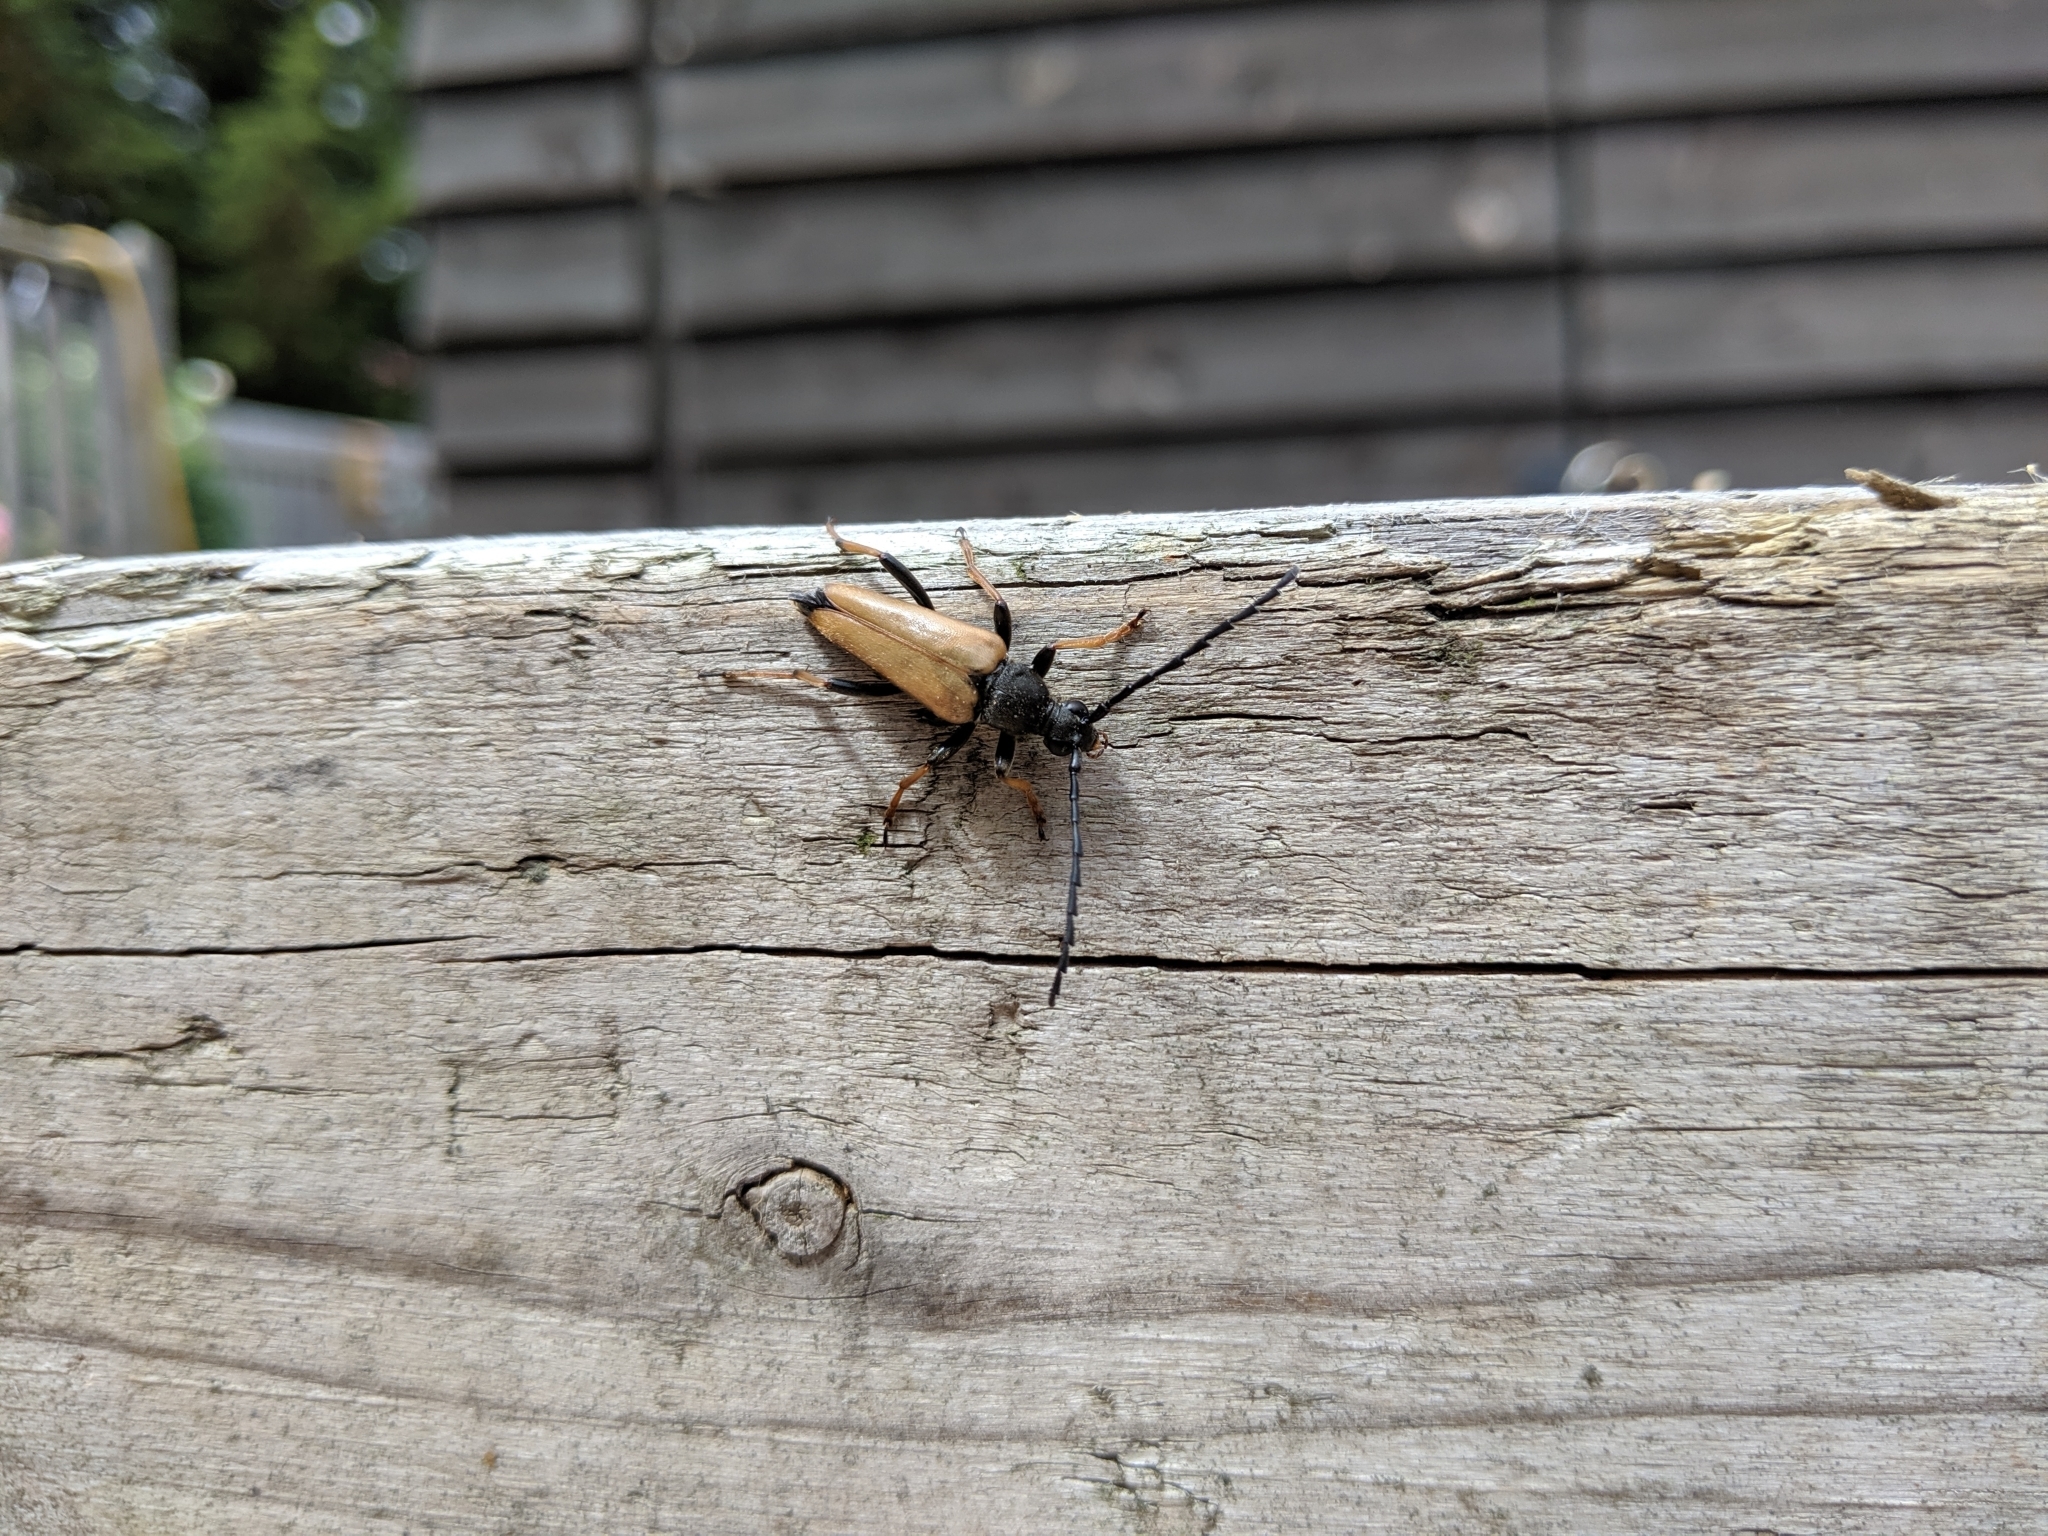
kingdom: Animalia
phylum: Arthropoda
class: Insecta
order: Coleoptera
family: Cerambycidae
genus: Stictoleptura
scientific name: Stictoleptura rubra
